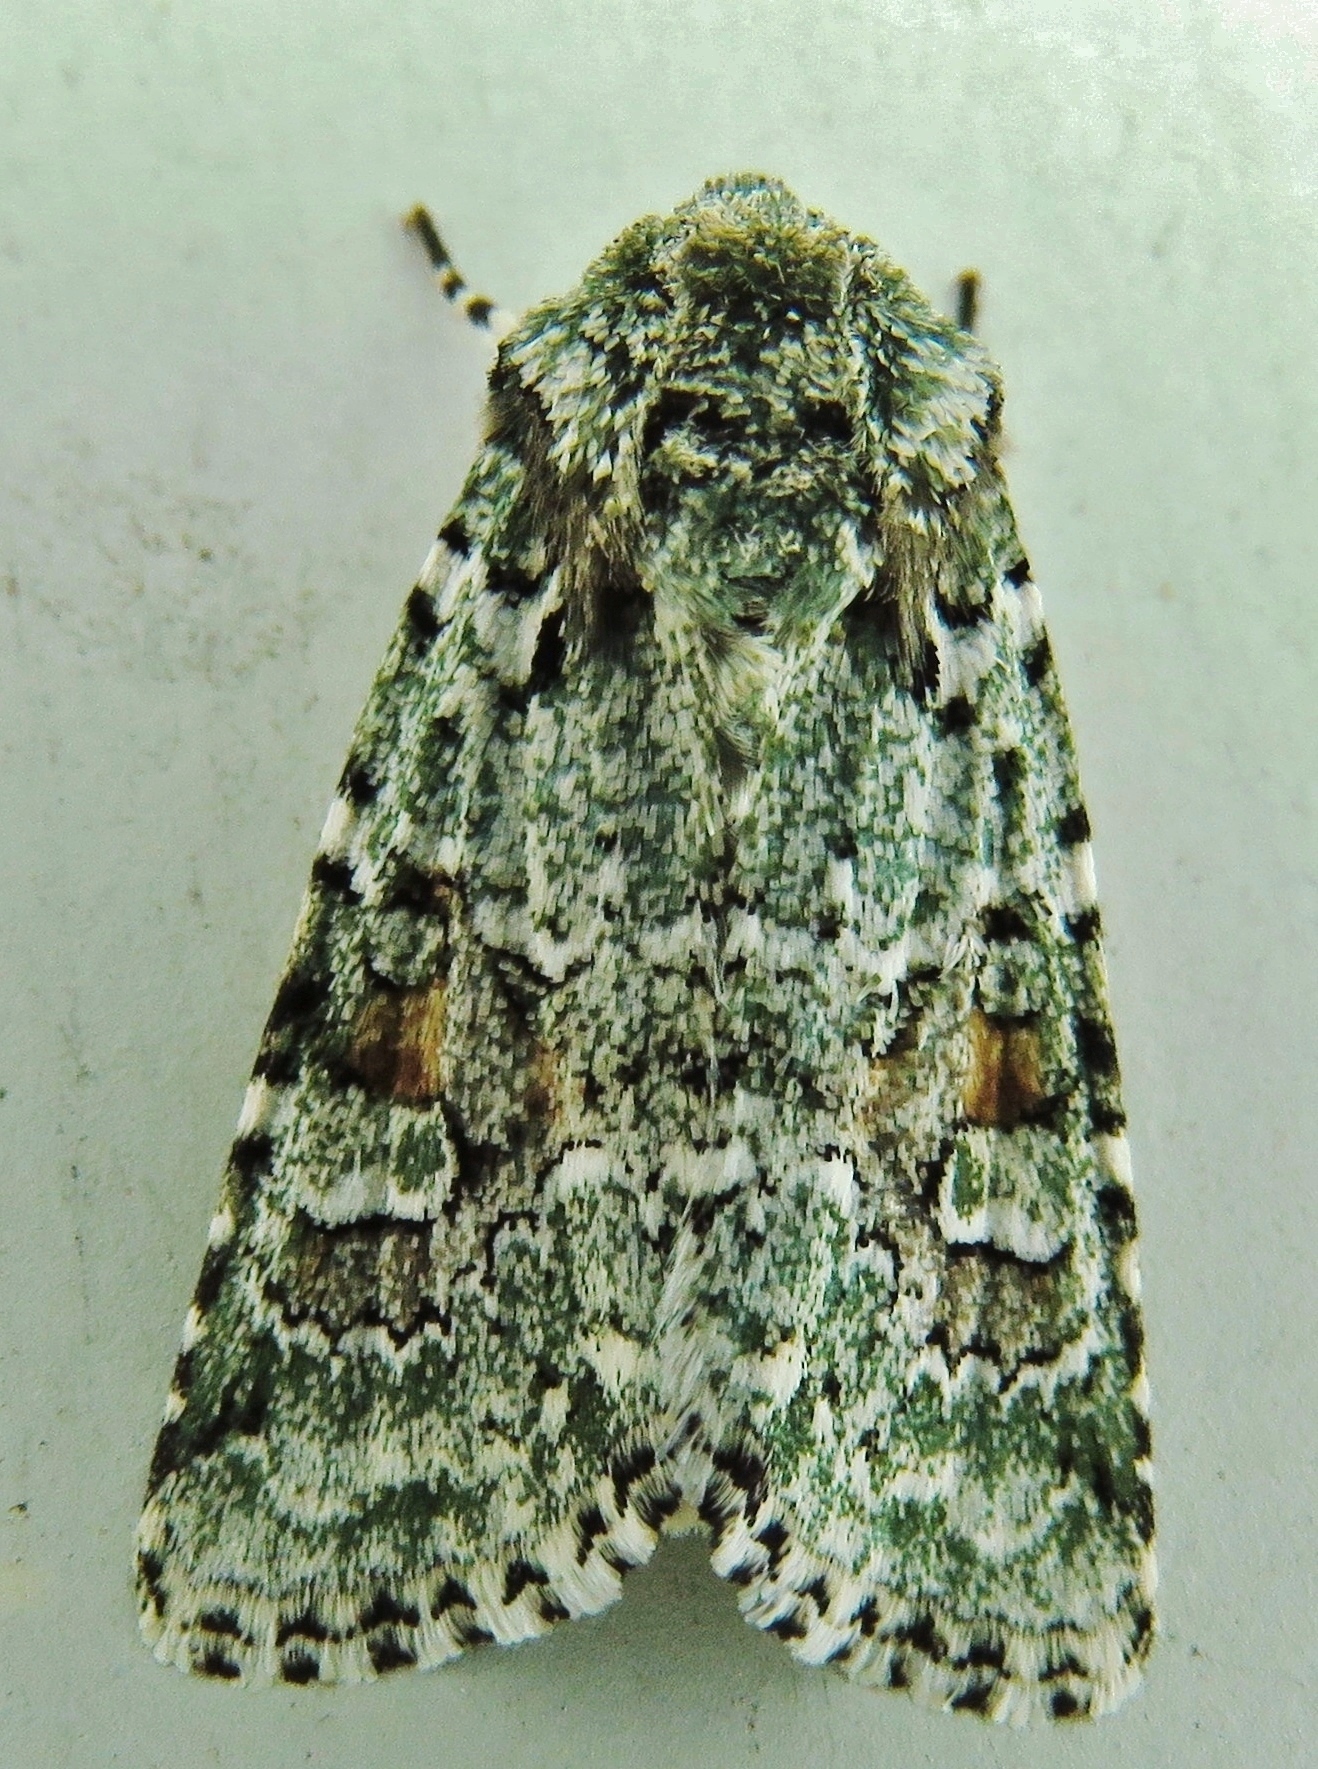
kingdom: Animalia
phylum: Arthropoda
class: Insecta
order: Lepidoptera
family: Noctuidae
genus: Lacinipolia
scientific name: Lacinipolia laudabilis
